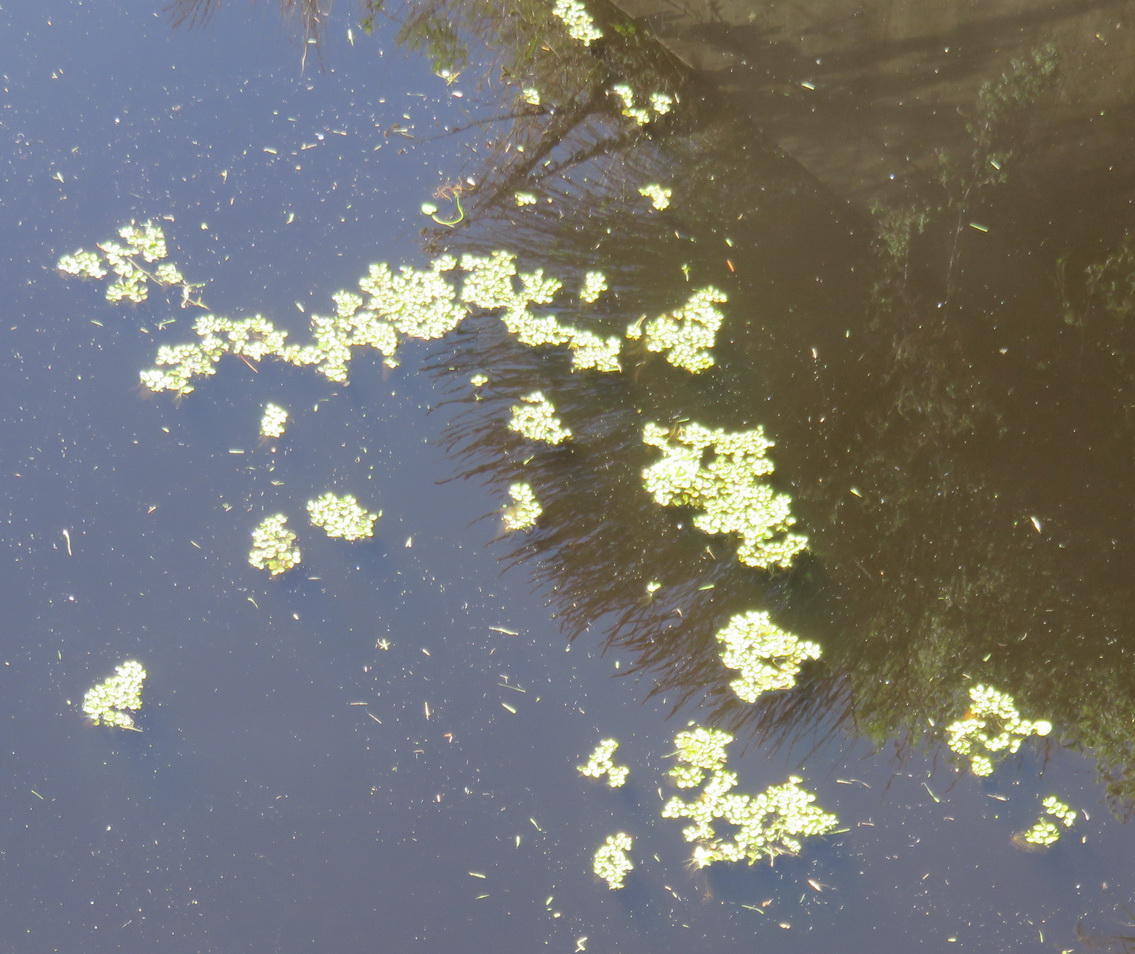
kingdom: Plantae
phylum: Tracheophyta
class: Polypodiopsida
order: Salviniales
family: Salviniaceae
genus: Salvinia
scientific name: Salvinia molesta
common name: Kariba weed
